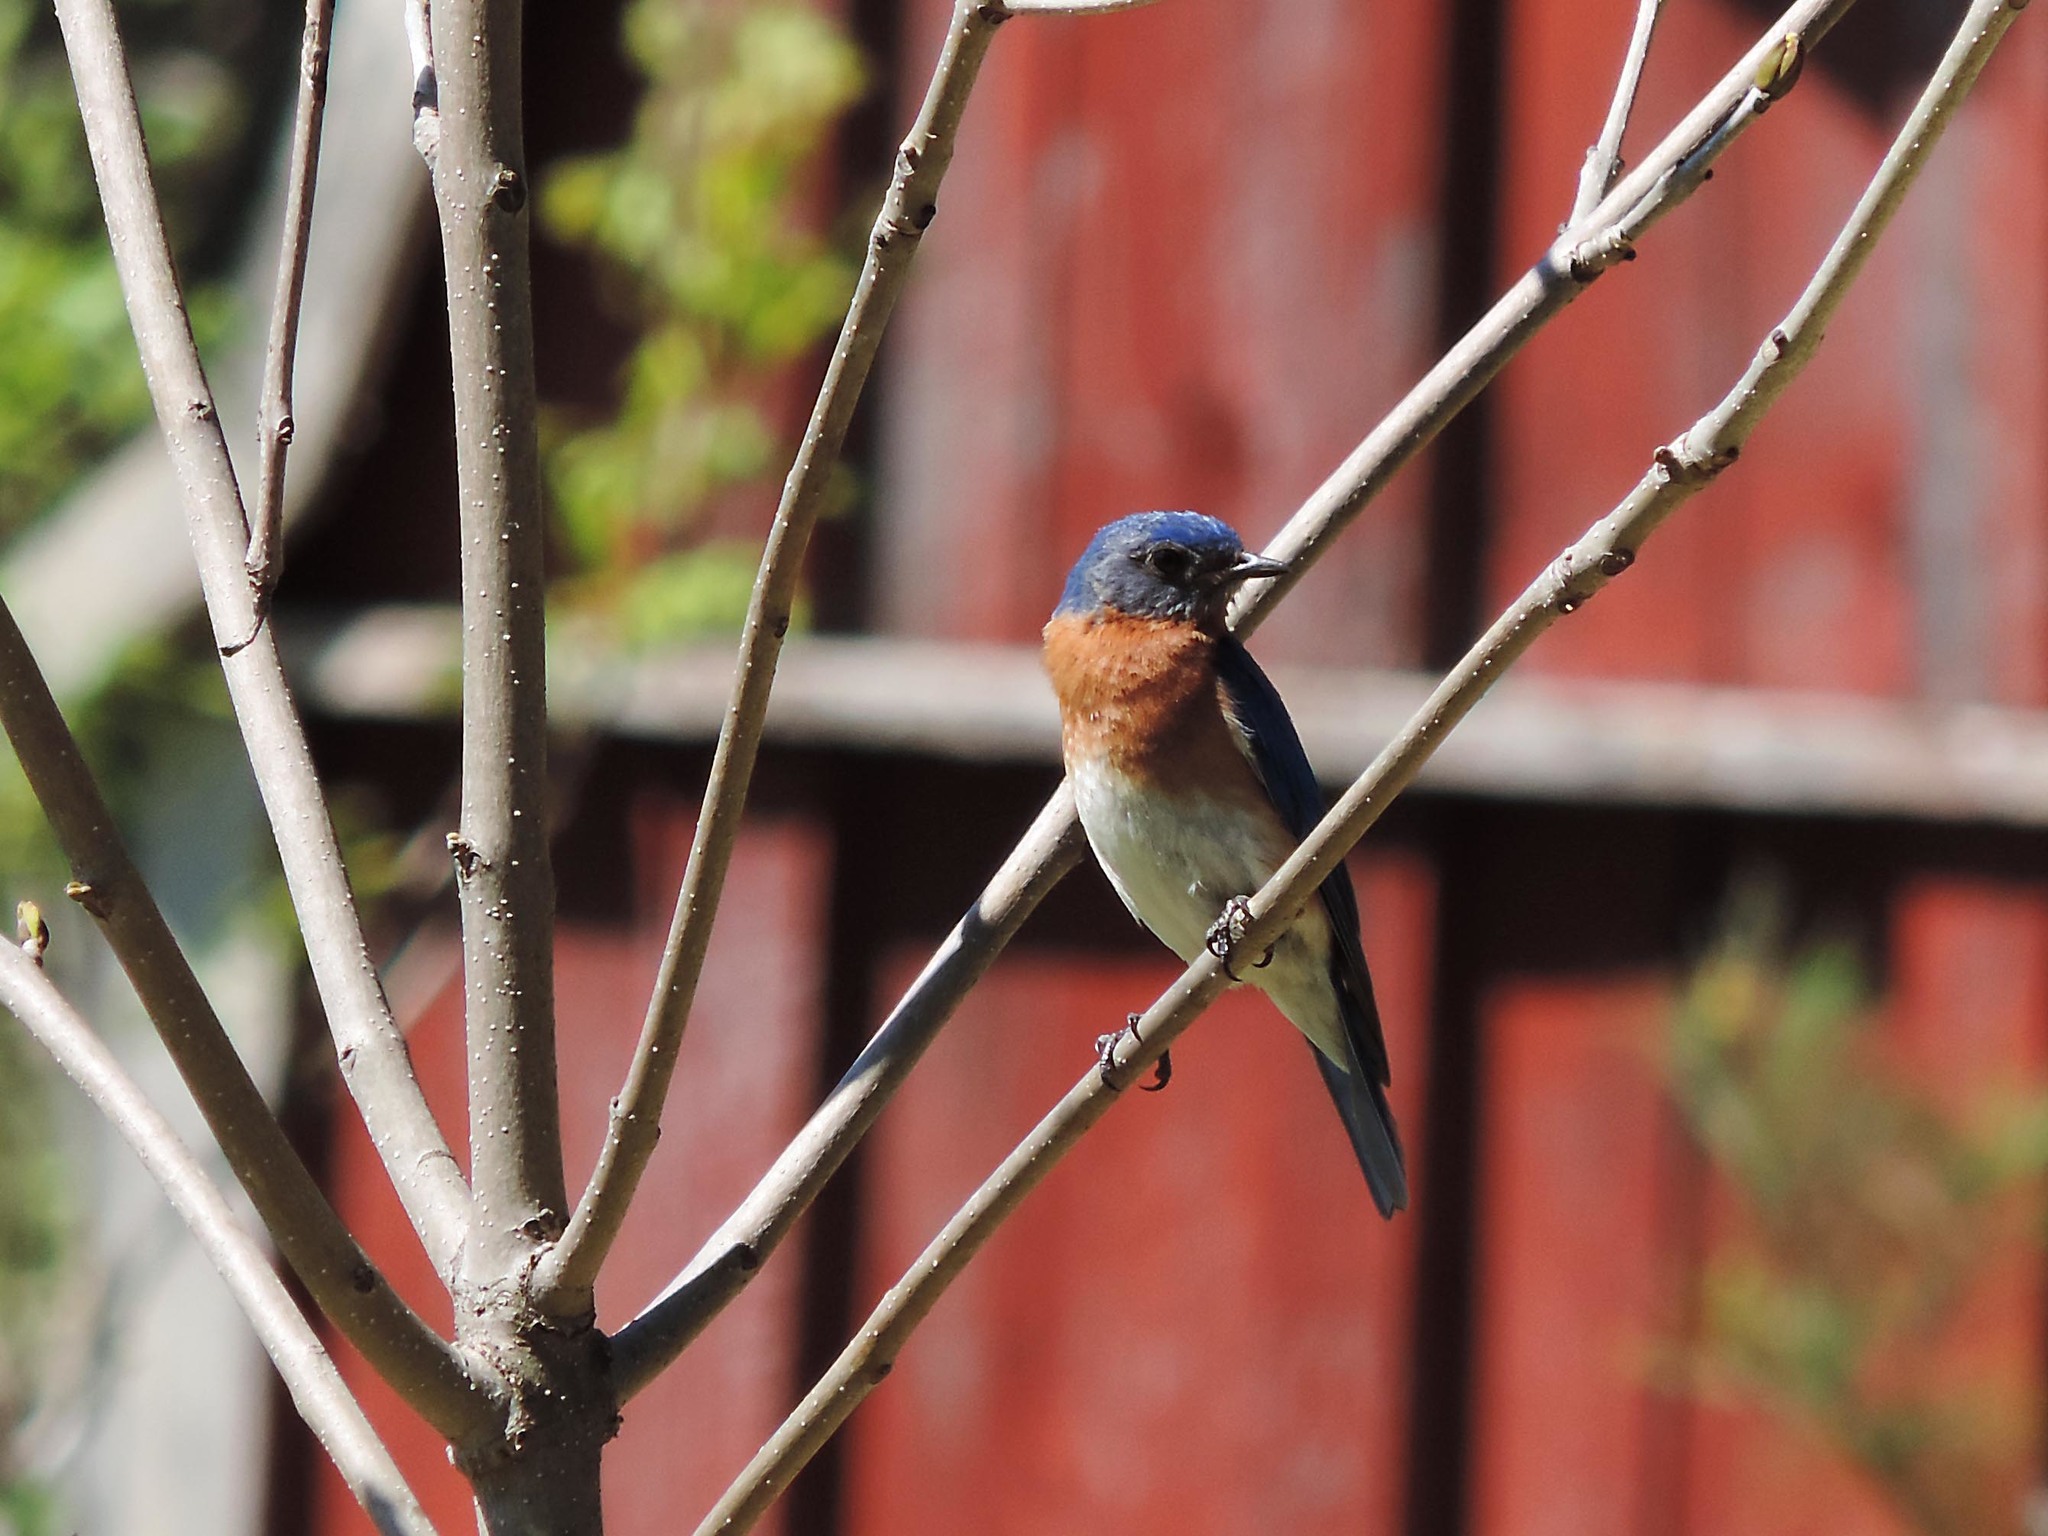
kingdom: Animalia
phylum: Chordata
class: Aves
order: Passeriformes
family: Turdidae
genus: Sialia
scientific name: Sialia sialis
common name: Eastern bluebird
